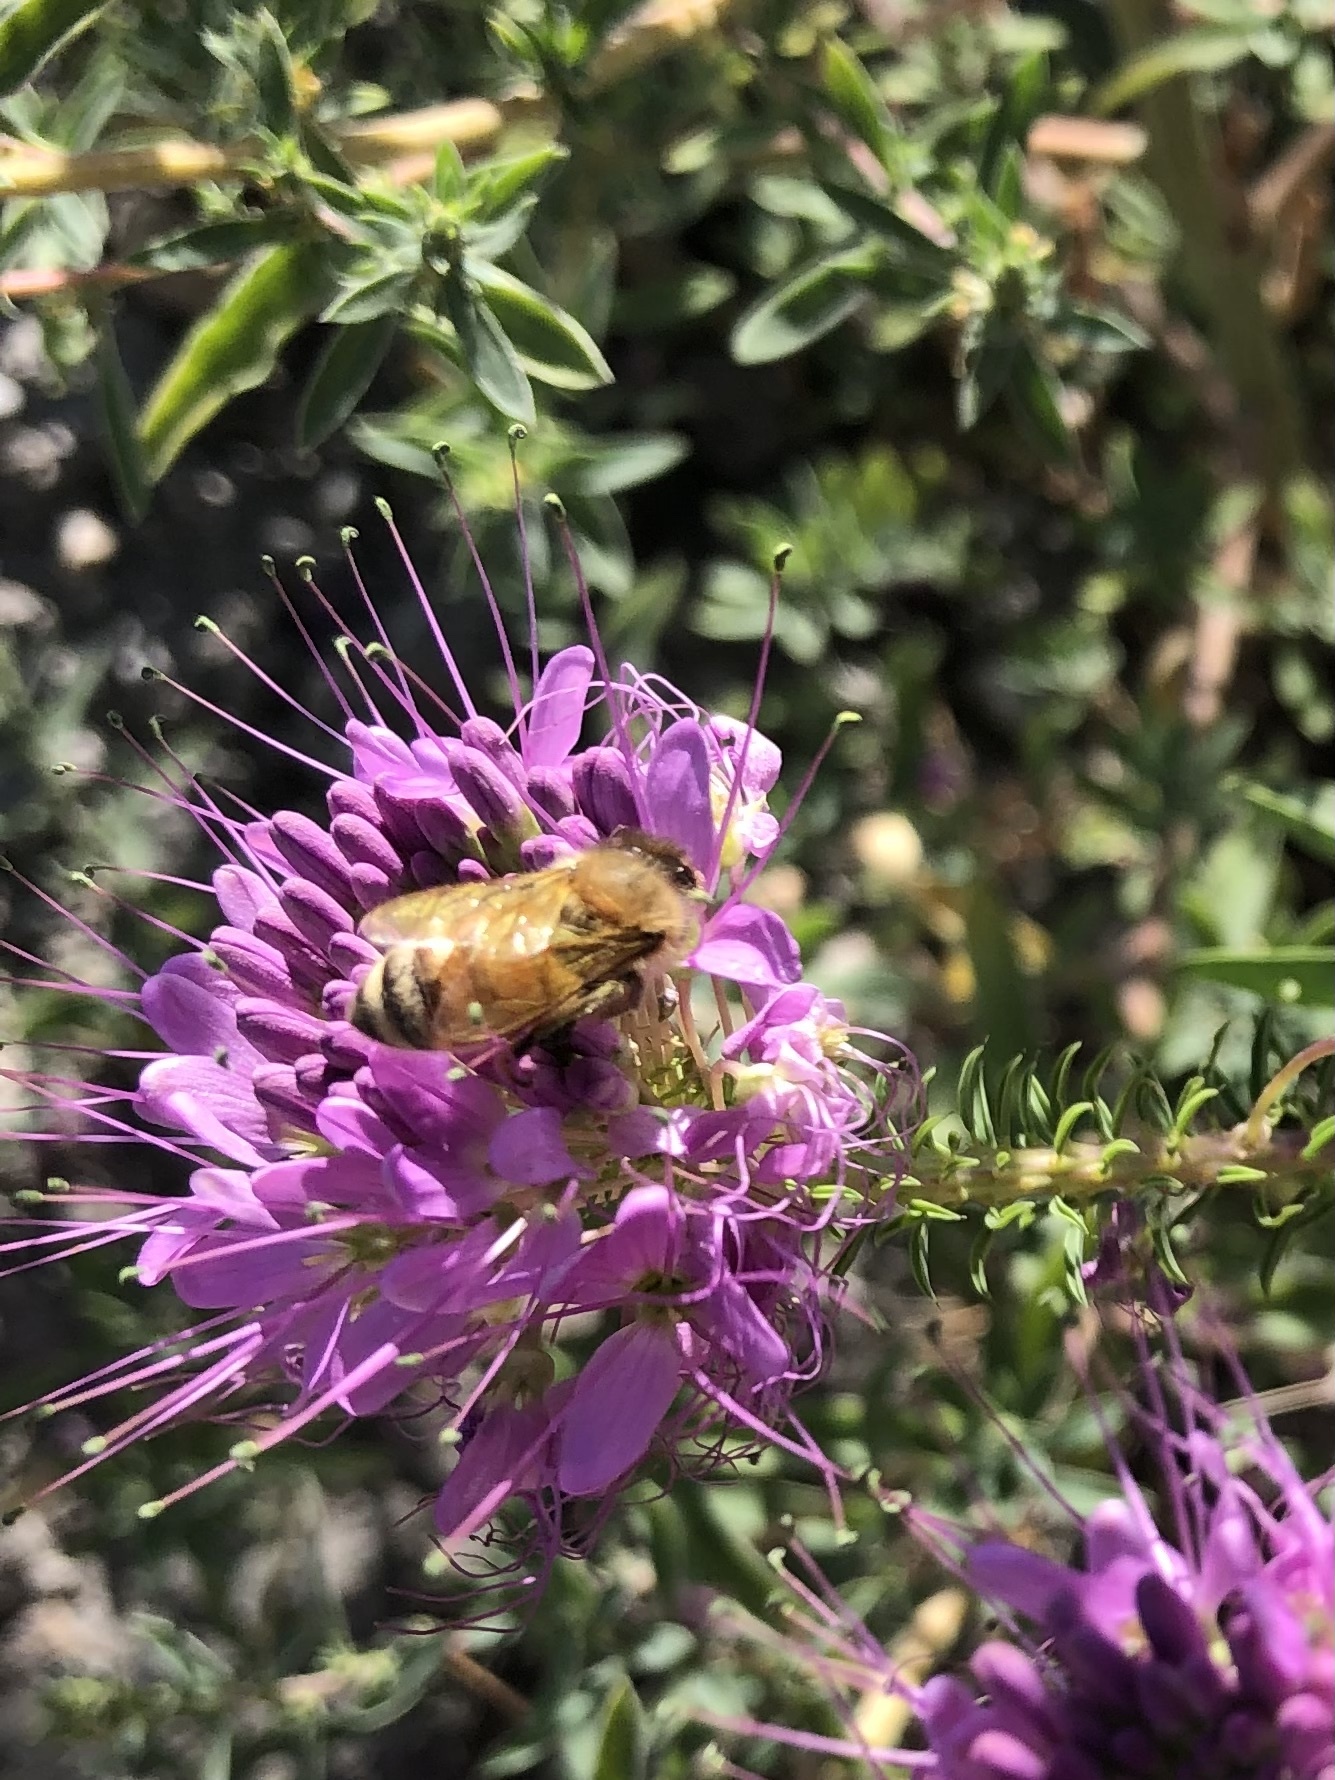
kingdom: Animalia
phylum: Arthropoda
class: Insecta
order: Hymenoptera
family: Apidae
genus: Apis
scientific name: Apis mellifera
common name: Honey bee
